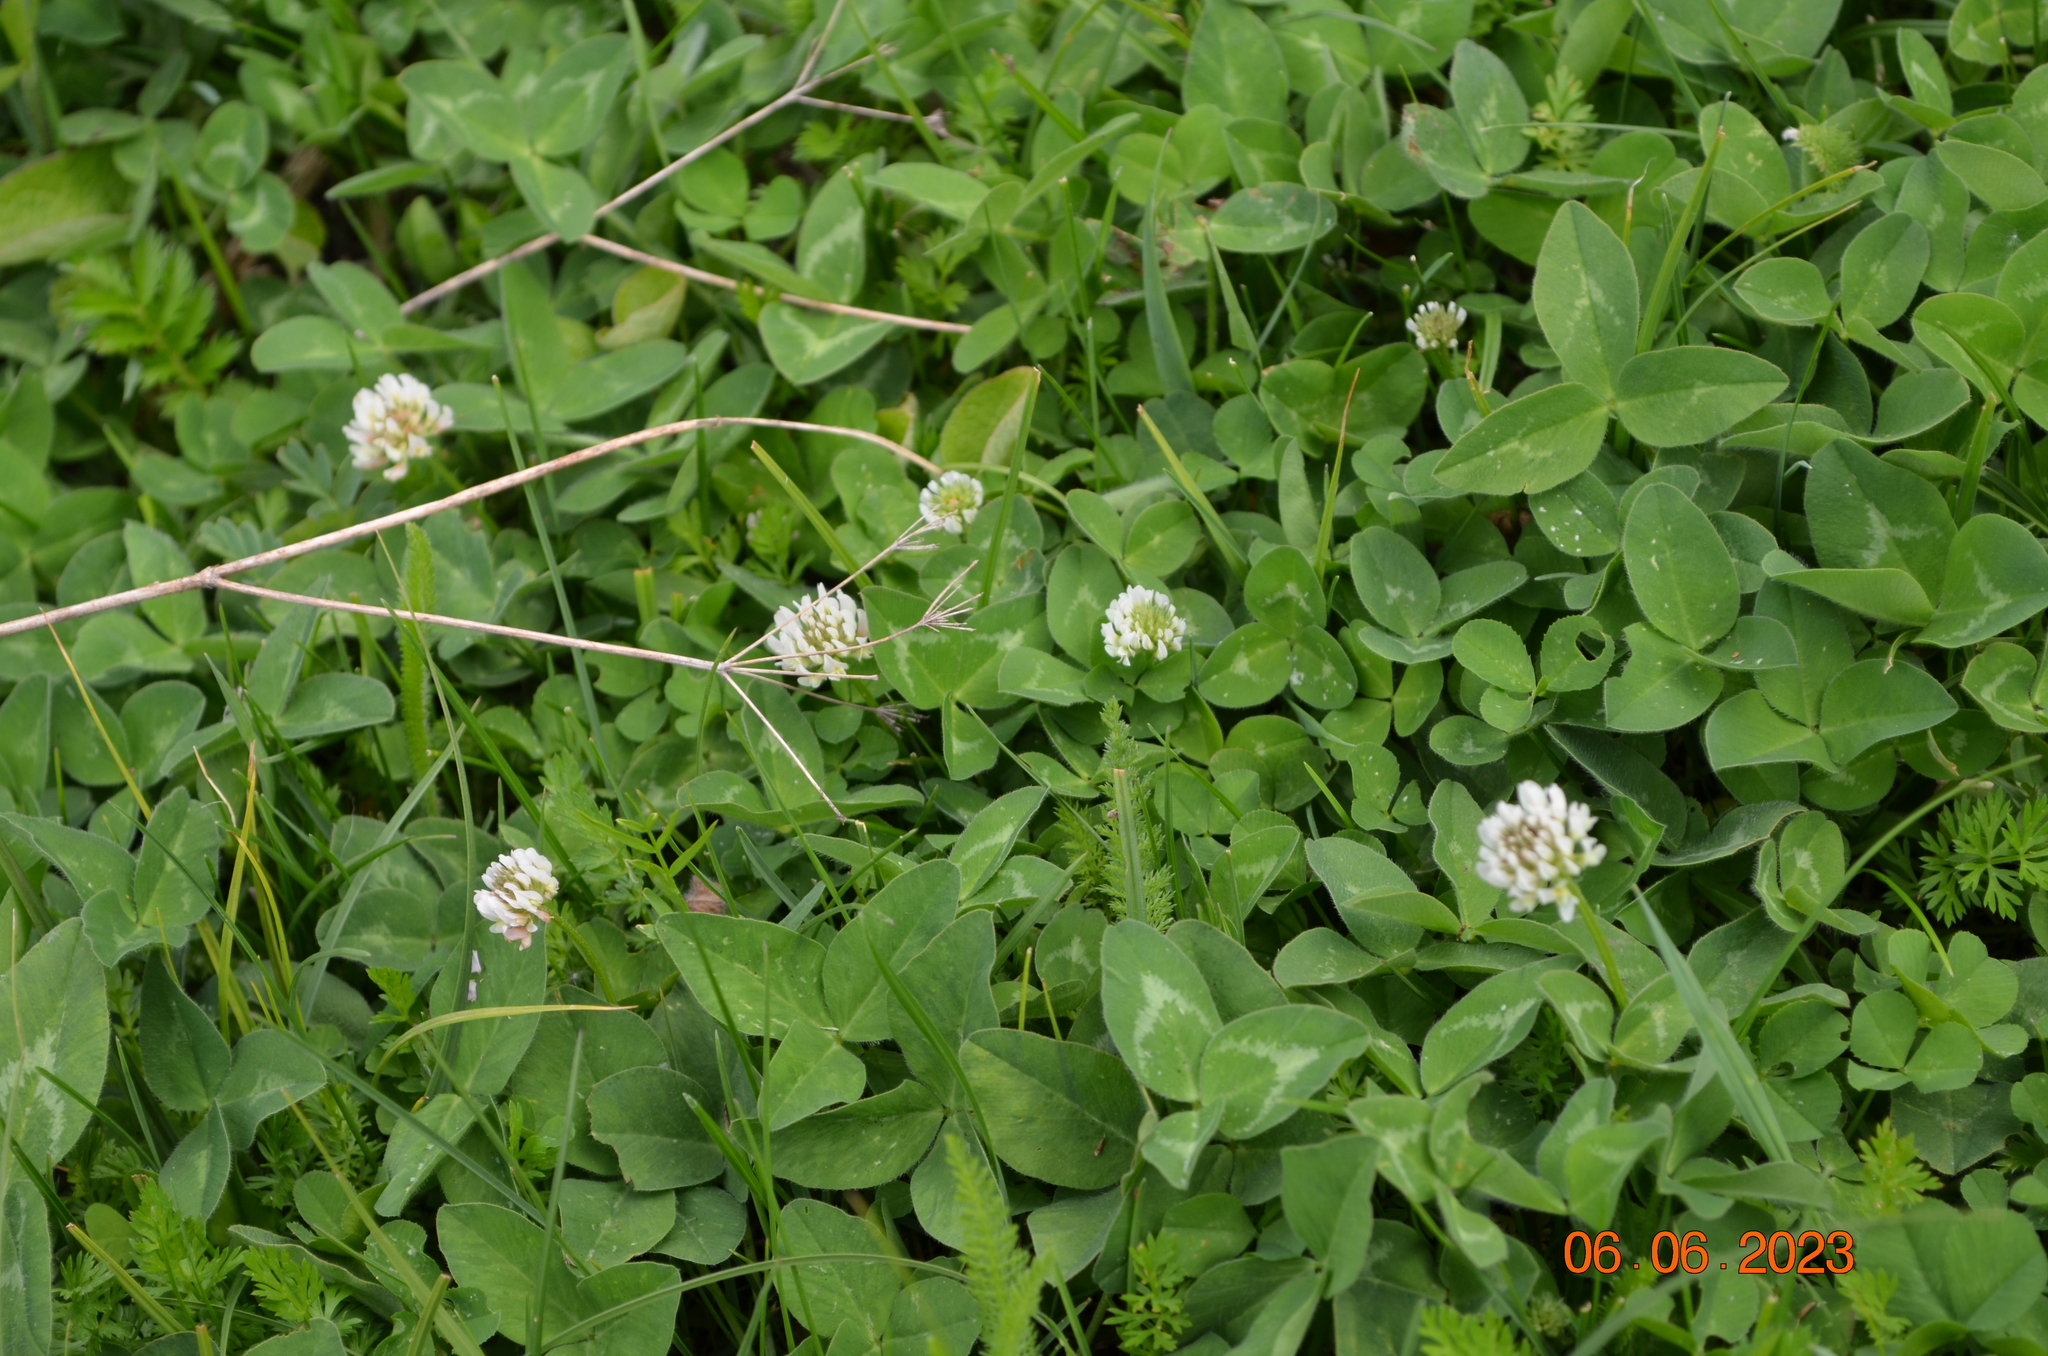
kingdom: Plantae
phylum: Tracheophyta
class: Magnoliopsida
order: Fabales
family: Fabaceae
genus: Trifolium
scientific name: Trifolium repens
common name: White clover
